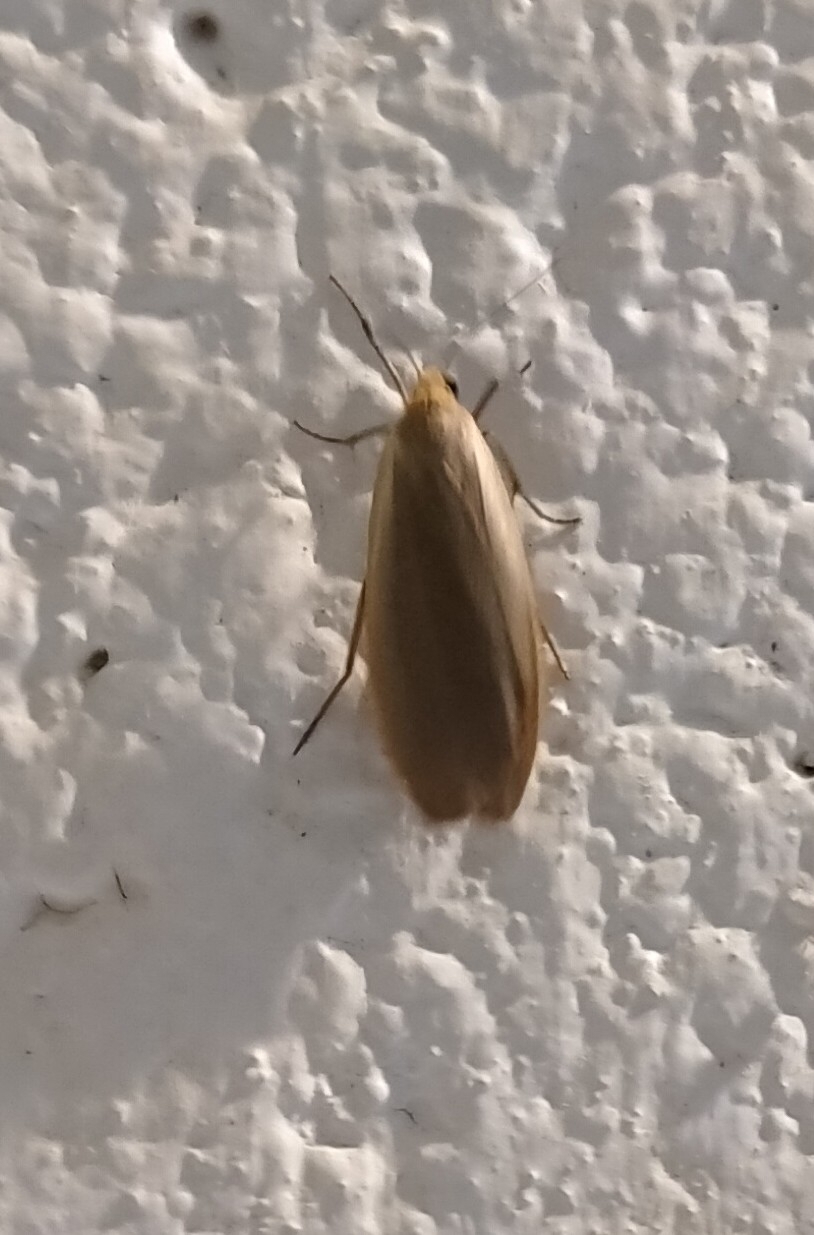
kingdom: Animalia
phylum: Arthropoda
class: Insecta
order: Lepidoptera
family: Erebidae
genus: Collita
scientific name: Collita griseola
